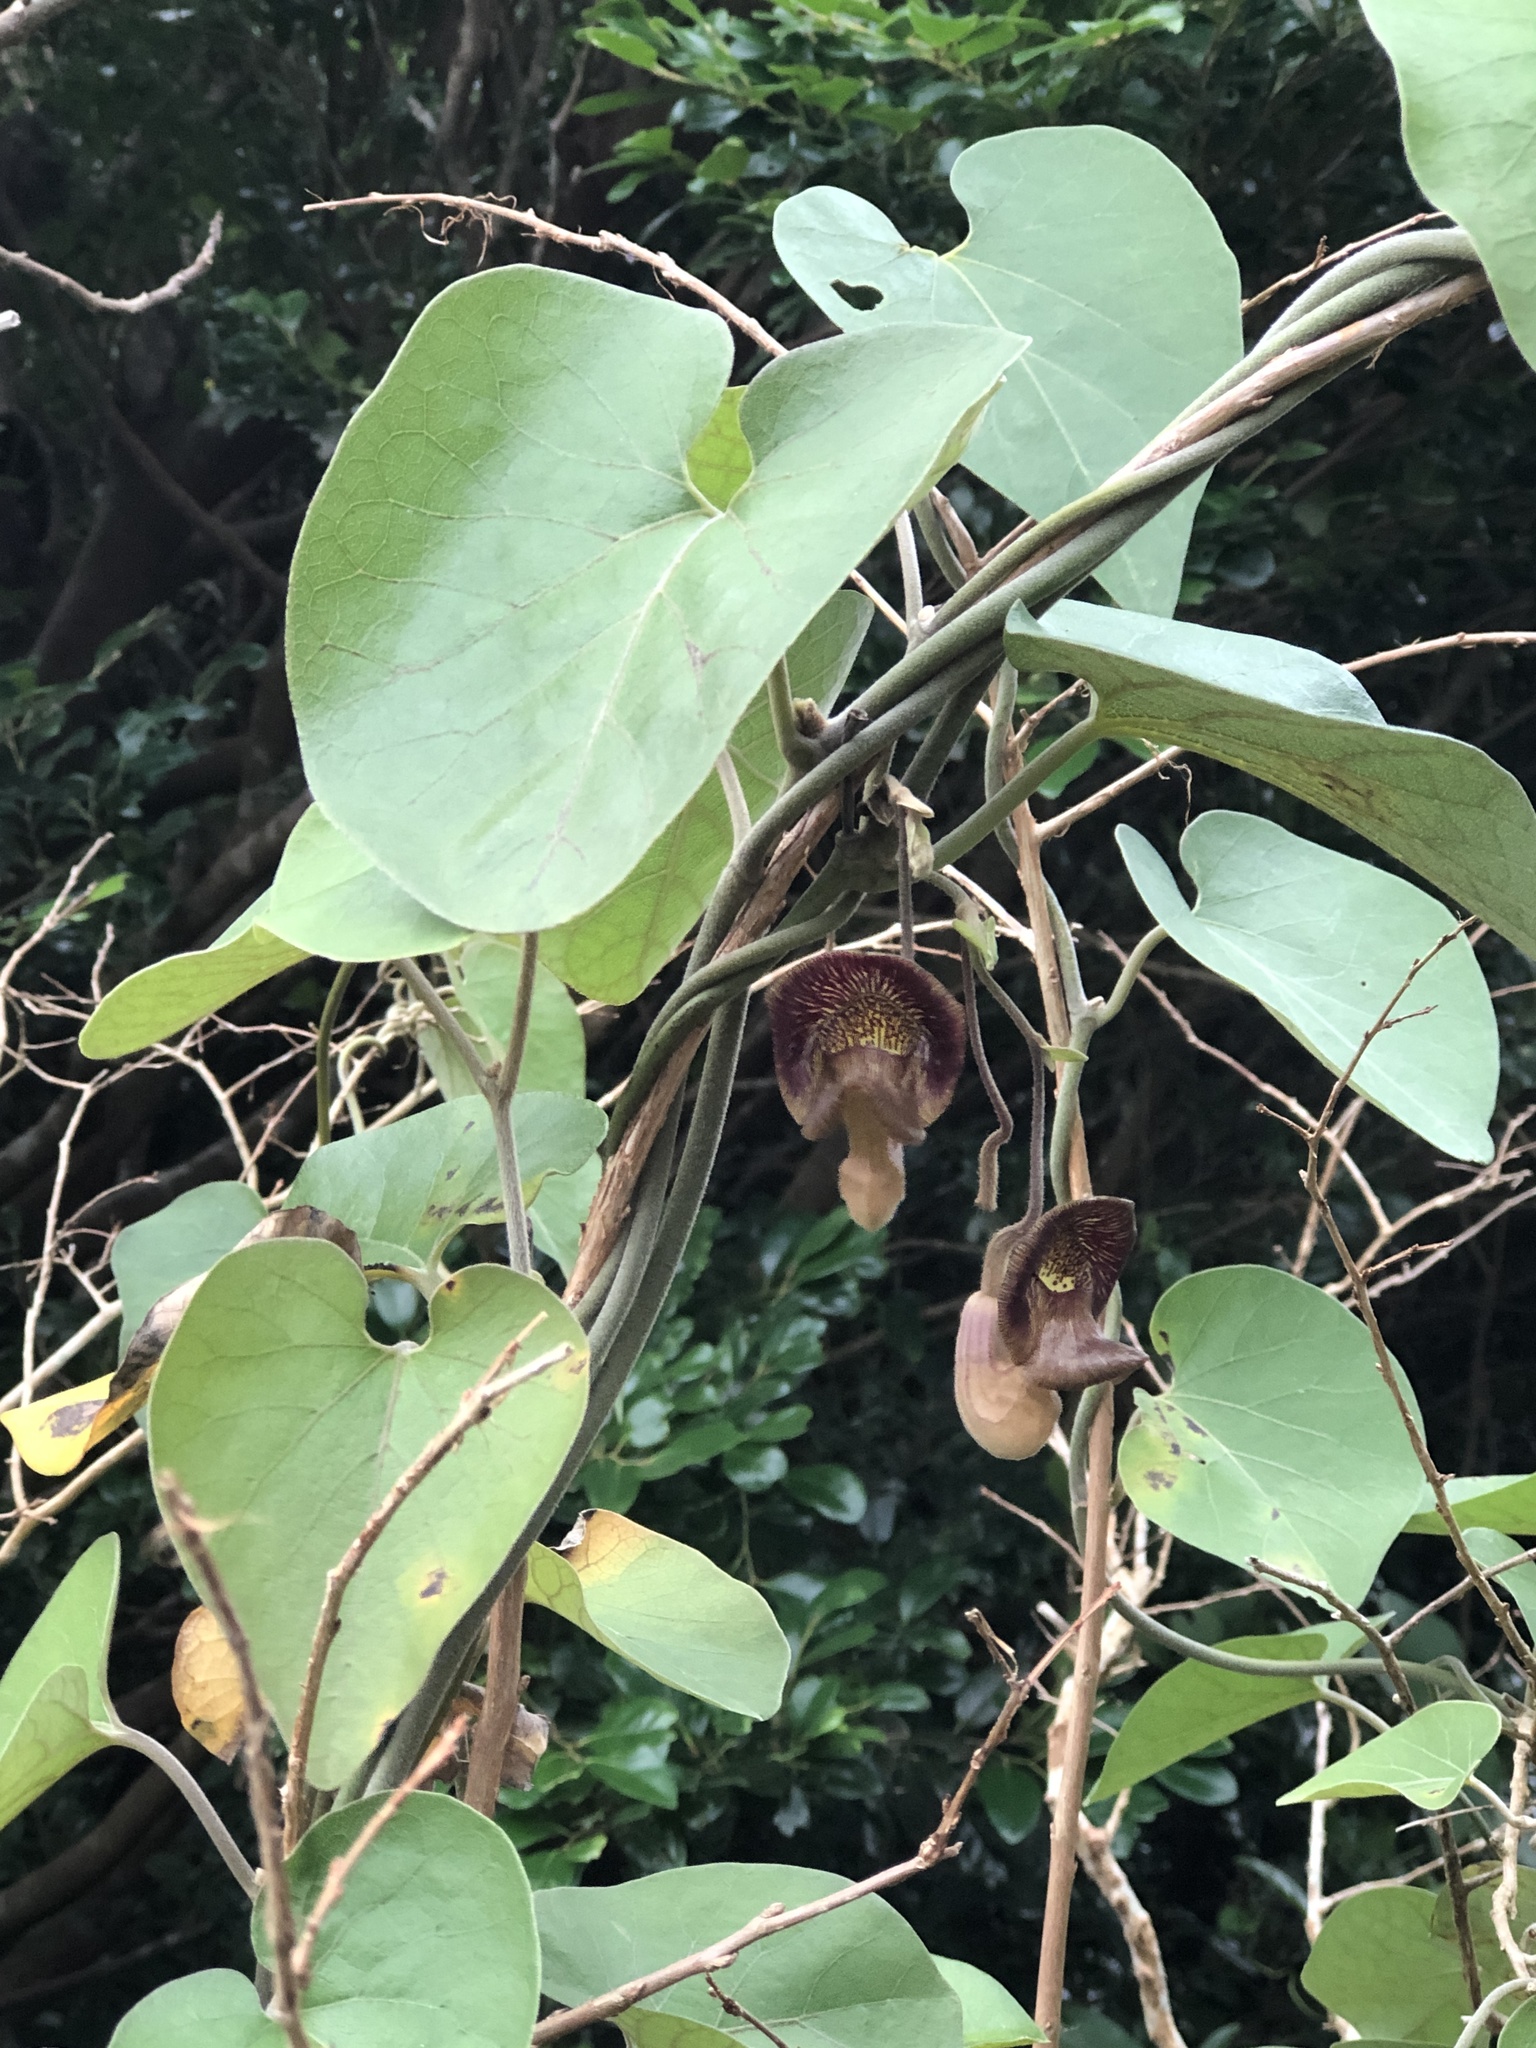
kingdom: Plantae
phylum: Tracheophyta
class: Magnoliopsida
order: Piperales
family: Aristolochiaceae
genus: Isotrema
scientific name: Isotrema liukiuense
